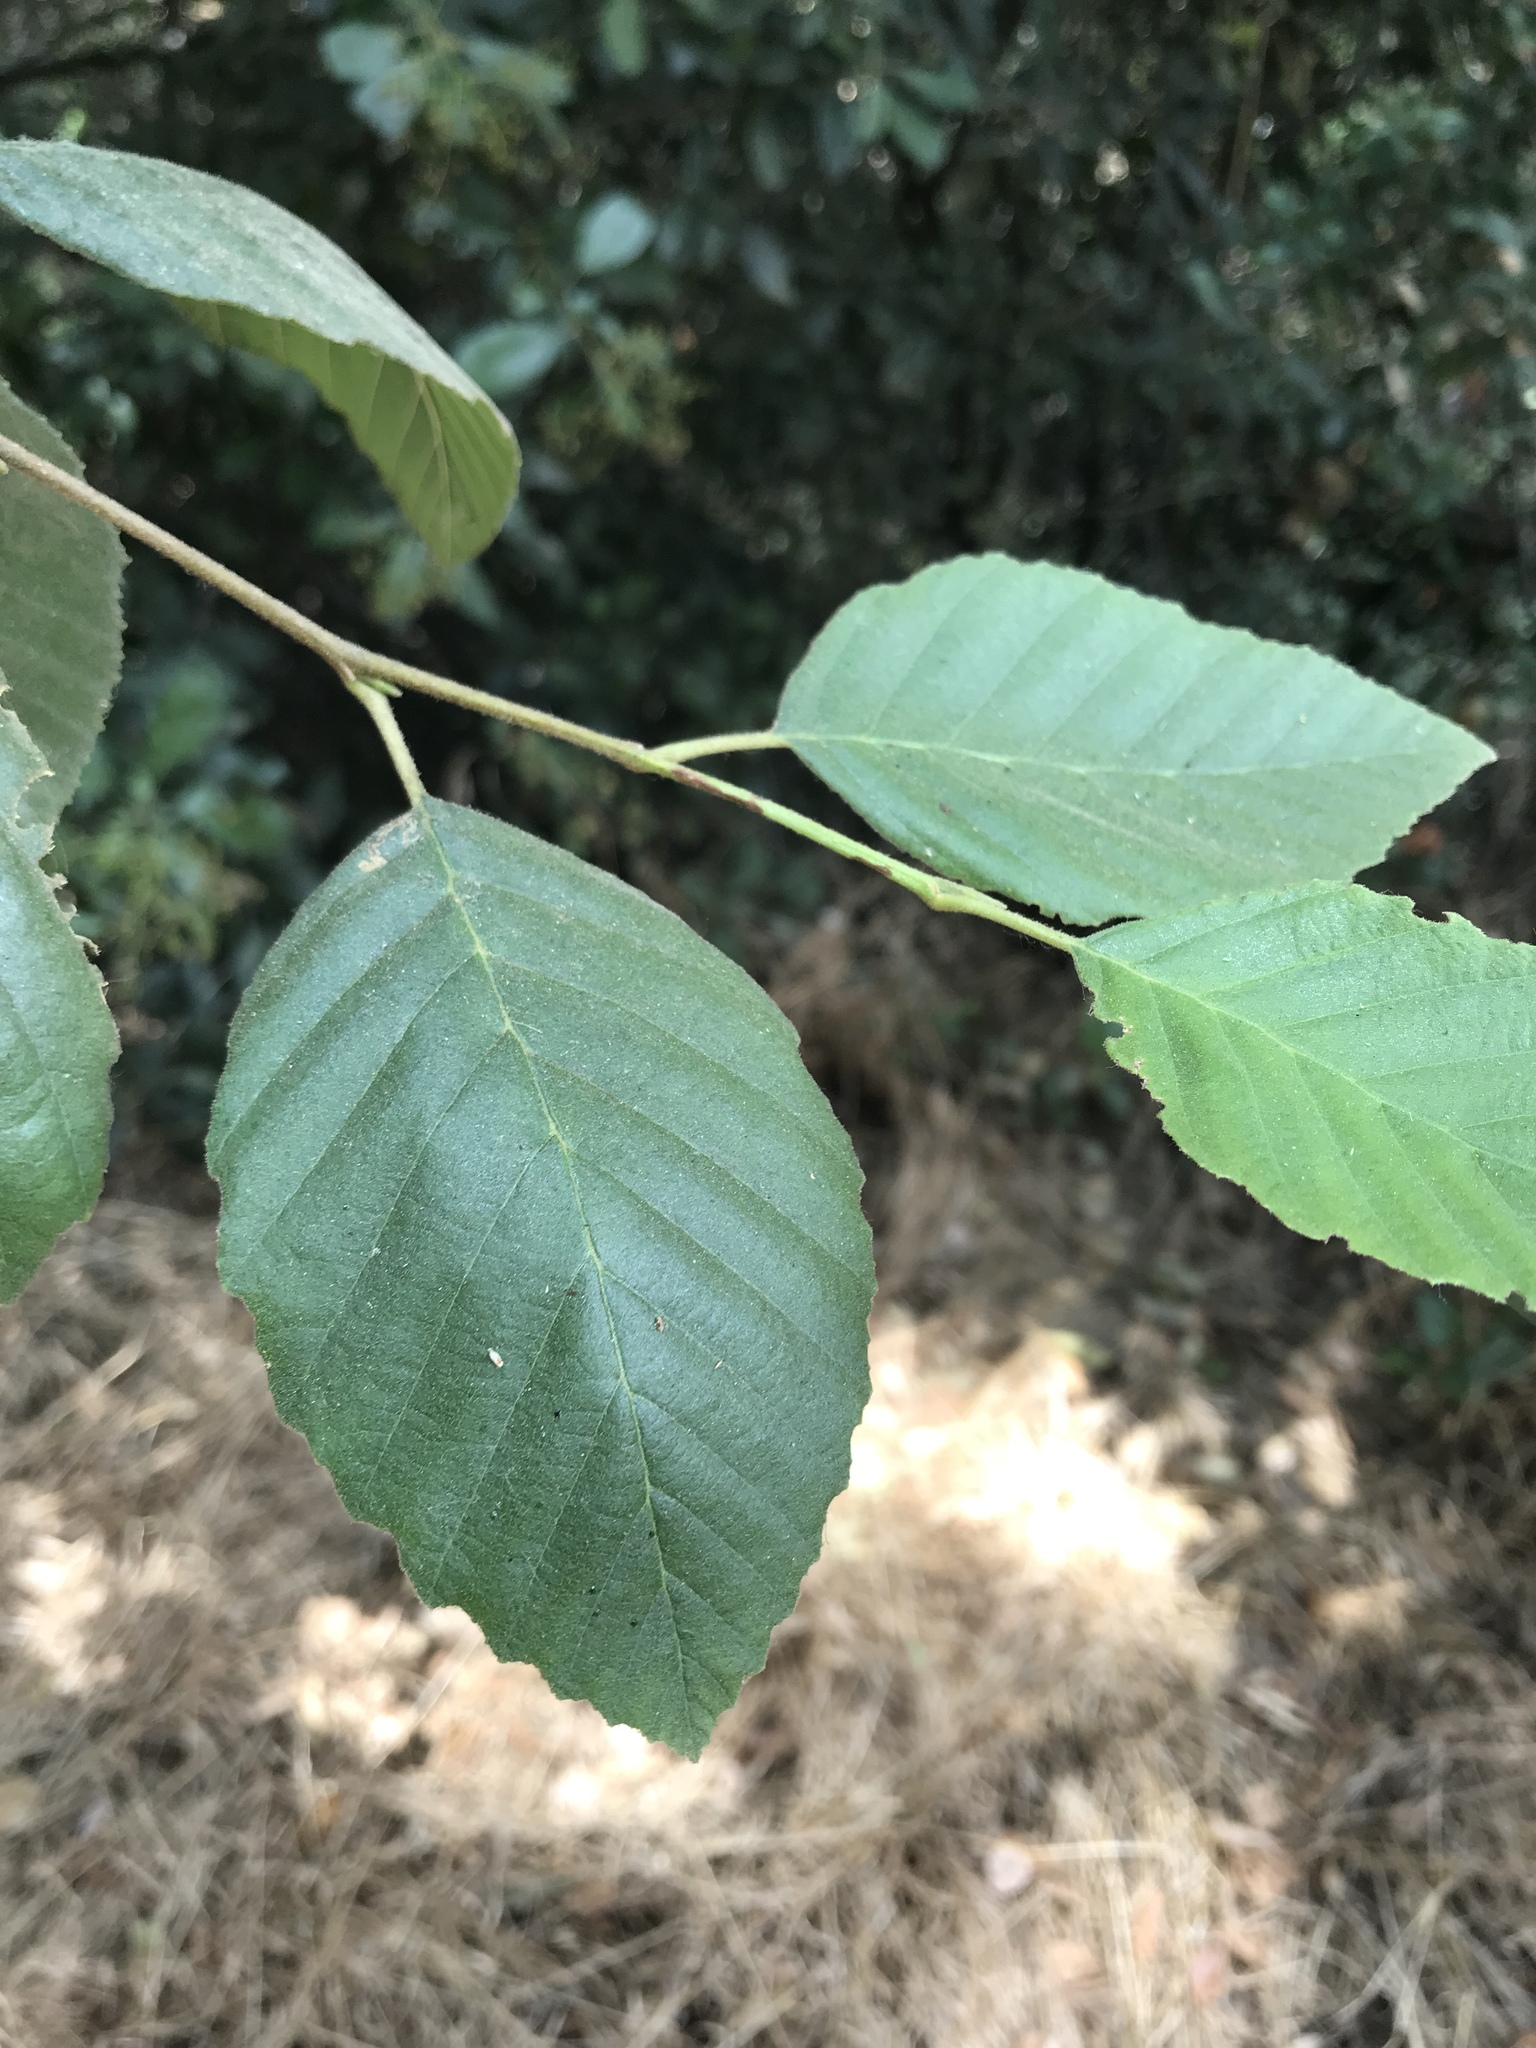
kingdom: Plantae
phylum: Tracheophyta
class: Magnoliopsida
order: Fagales
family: Betulaceae
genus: Alnus
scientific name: Alnus rhombifolia
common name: California alder
